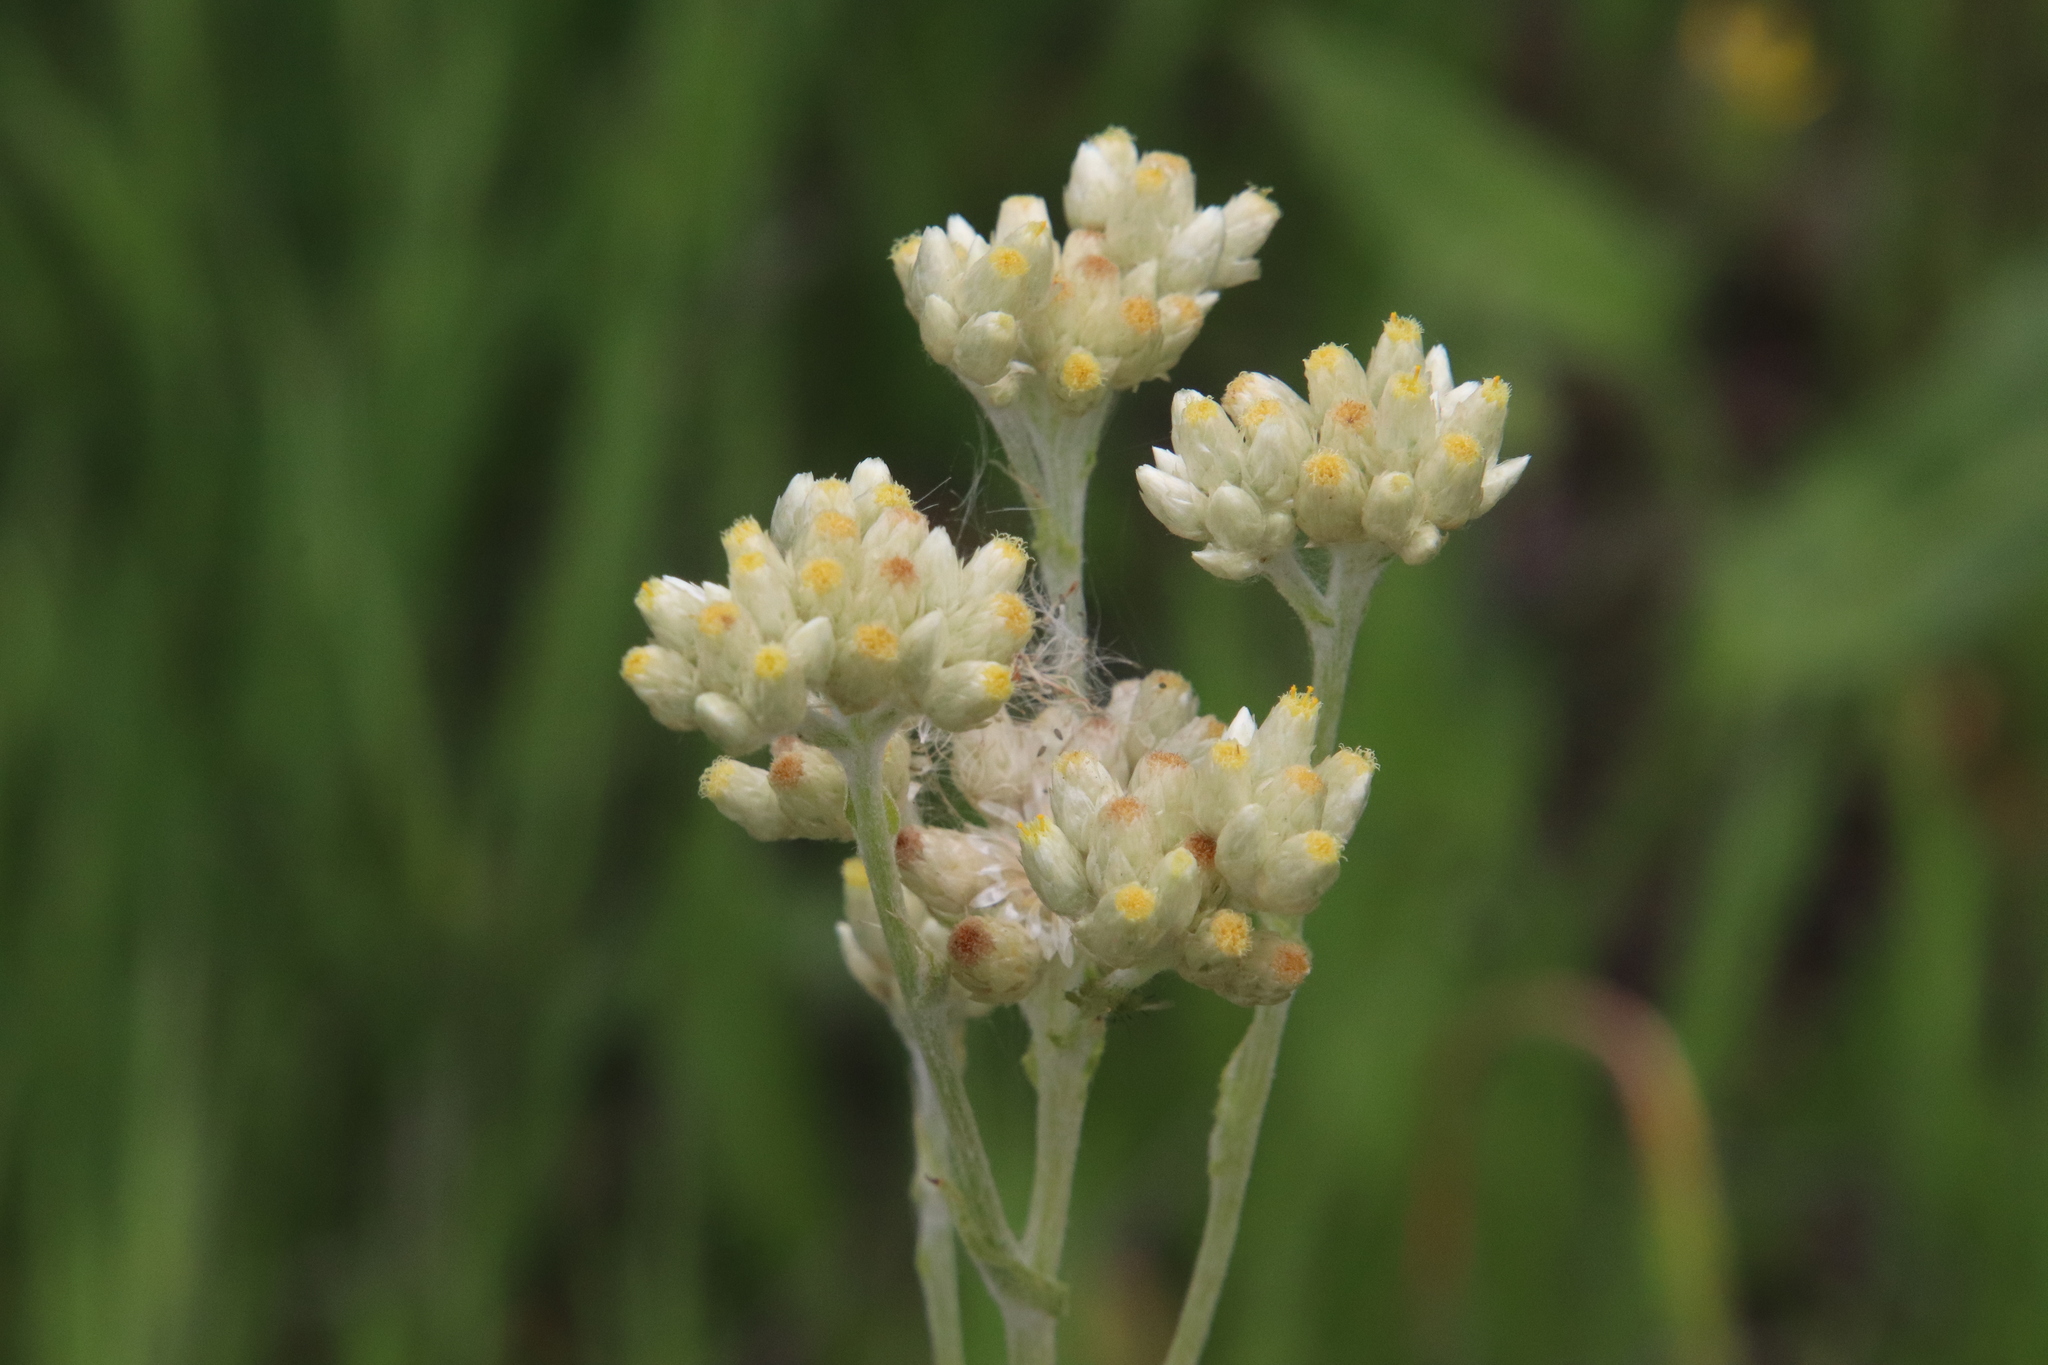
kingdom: Plantae
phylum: Tracheophyta
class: Magnoliopsida
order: Asterales
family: Asteraceae
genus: Pseudognaphalium
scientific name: Pseudognaphalium biolettii
